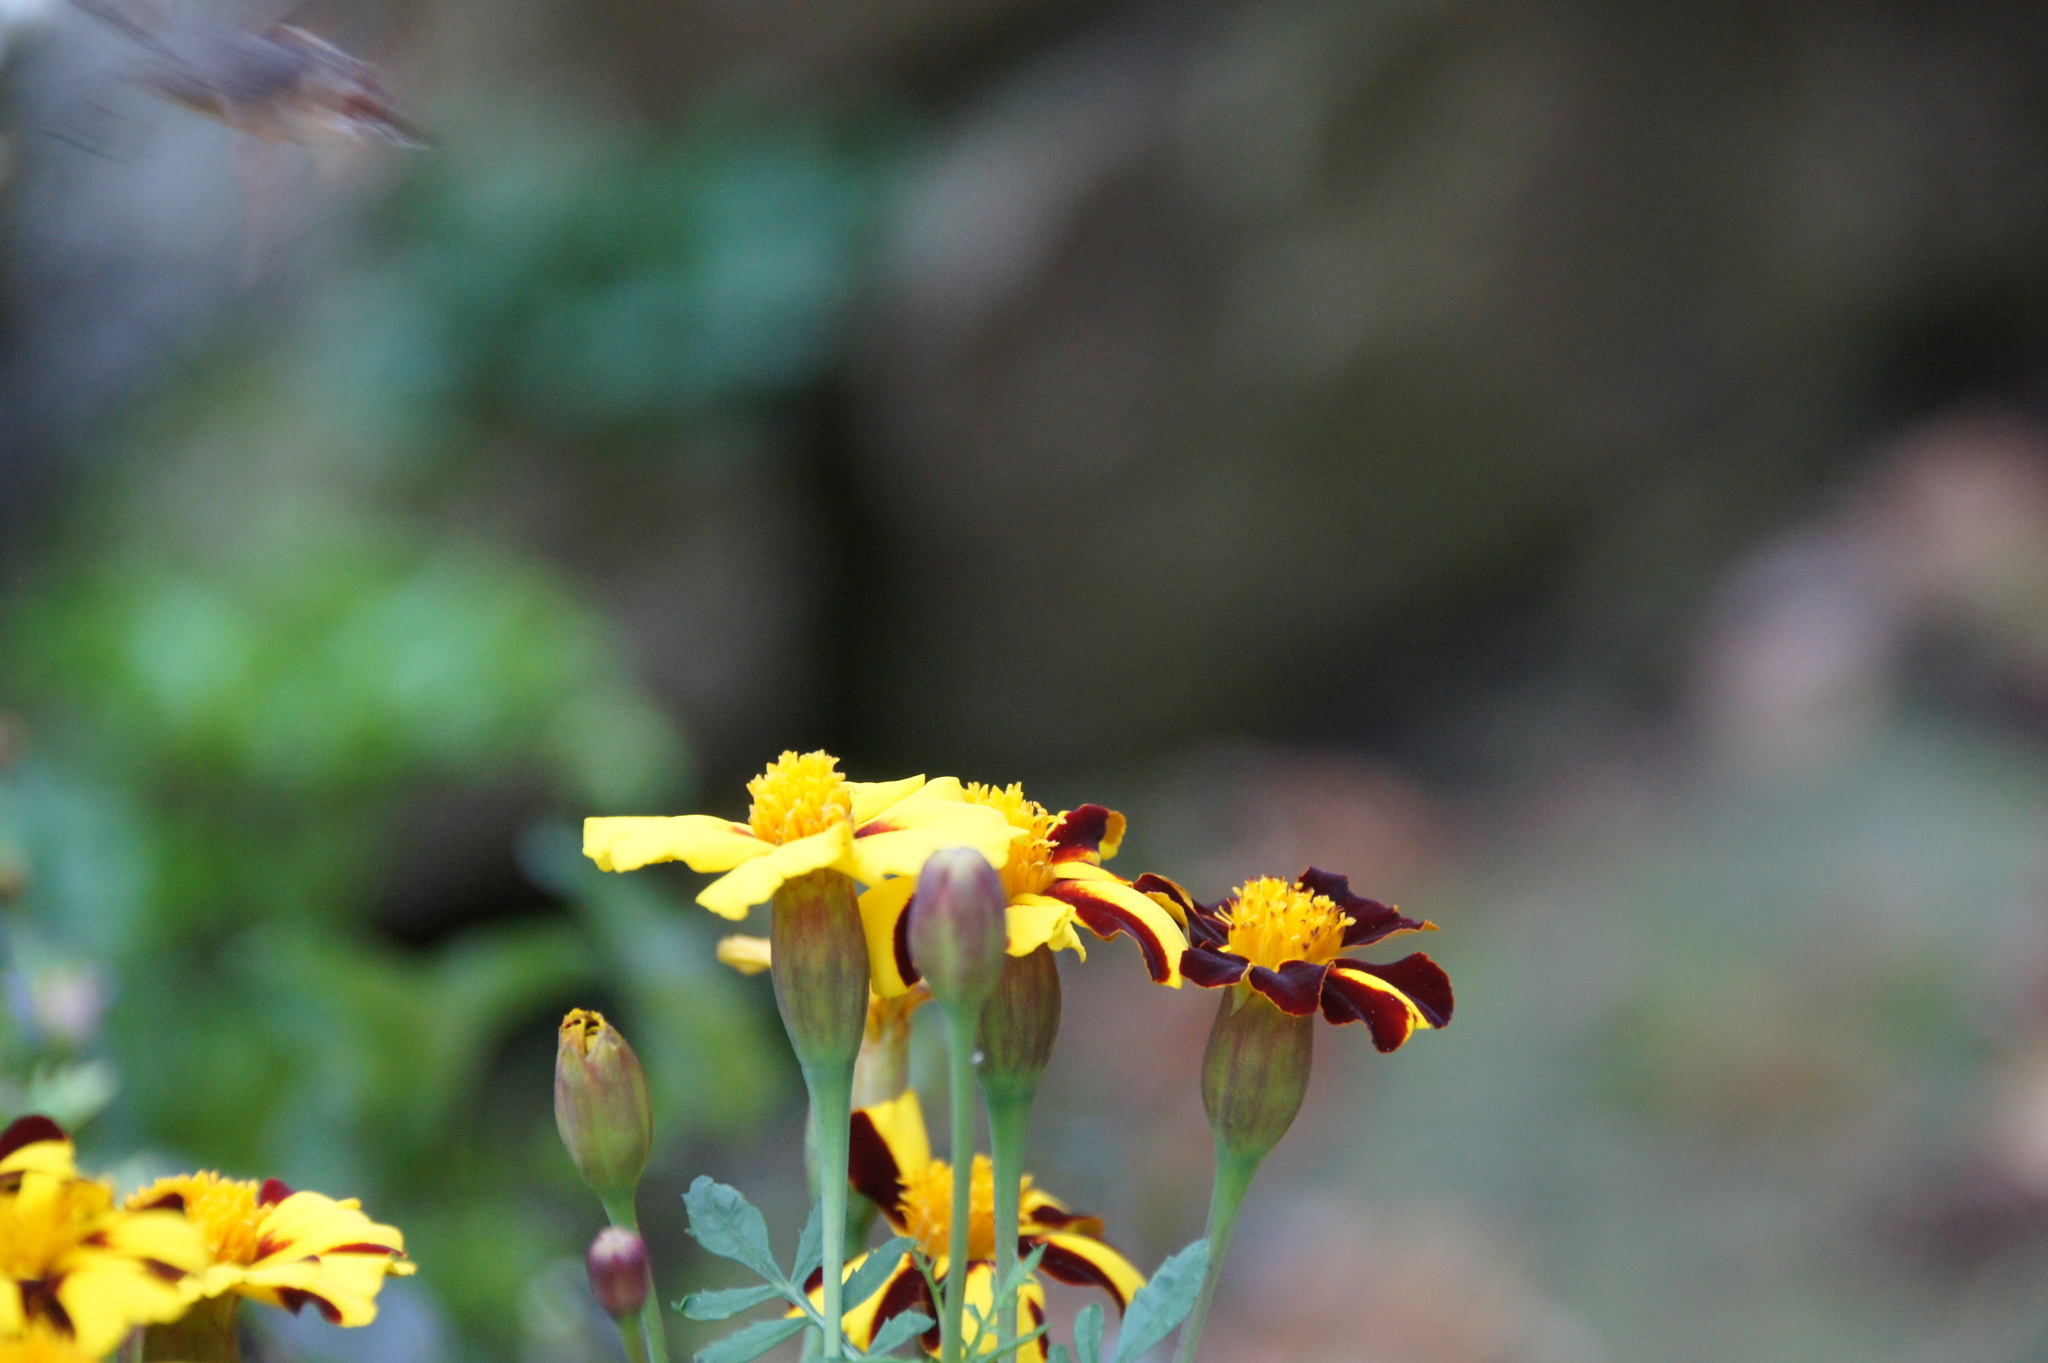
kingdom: Animalia
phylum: Arthropoda
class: Insecta
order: Lepidoptera
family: Sphingidae
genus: Macroglossum
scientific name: Macroglossum stellatarum
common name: Humming-bird hawk-moth
